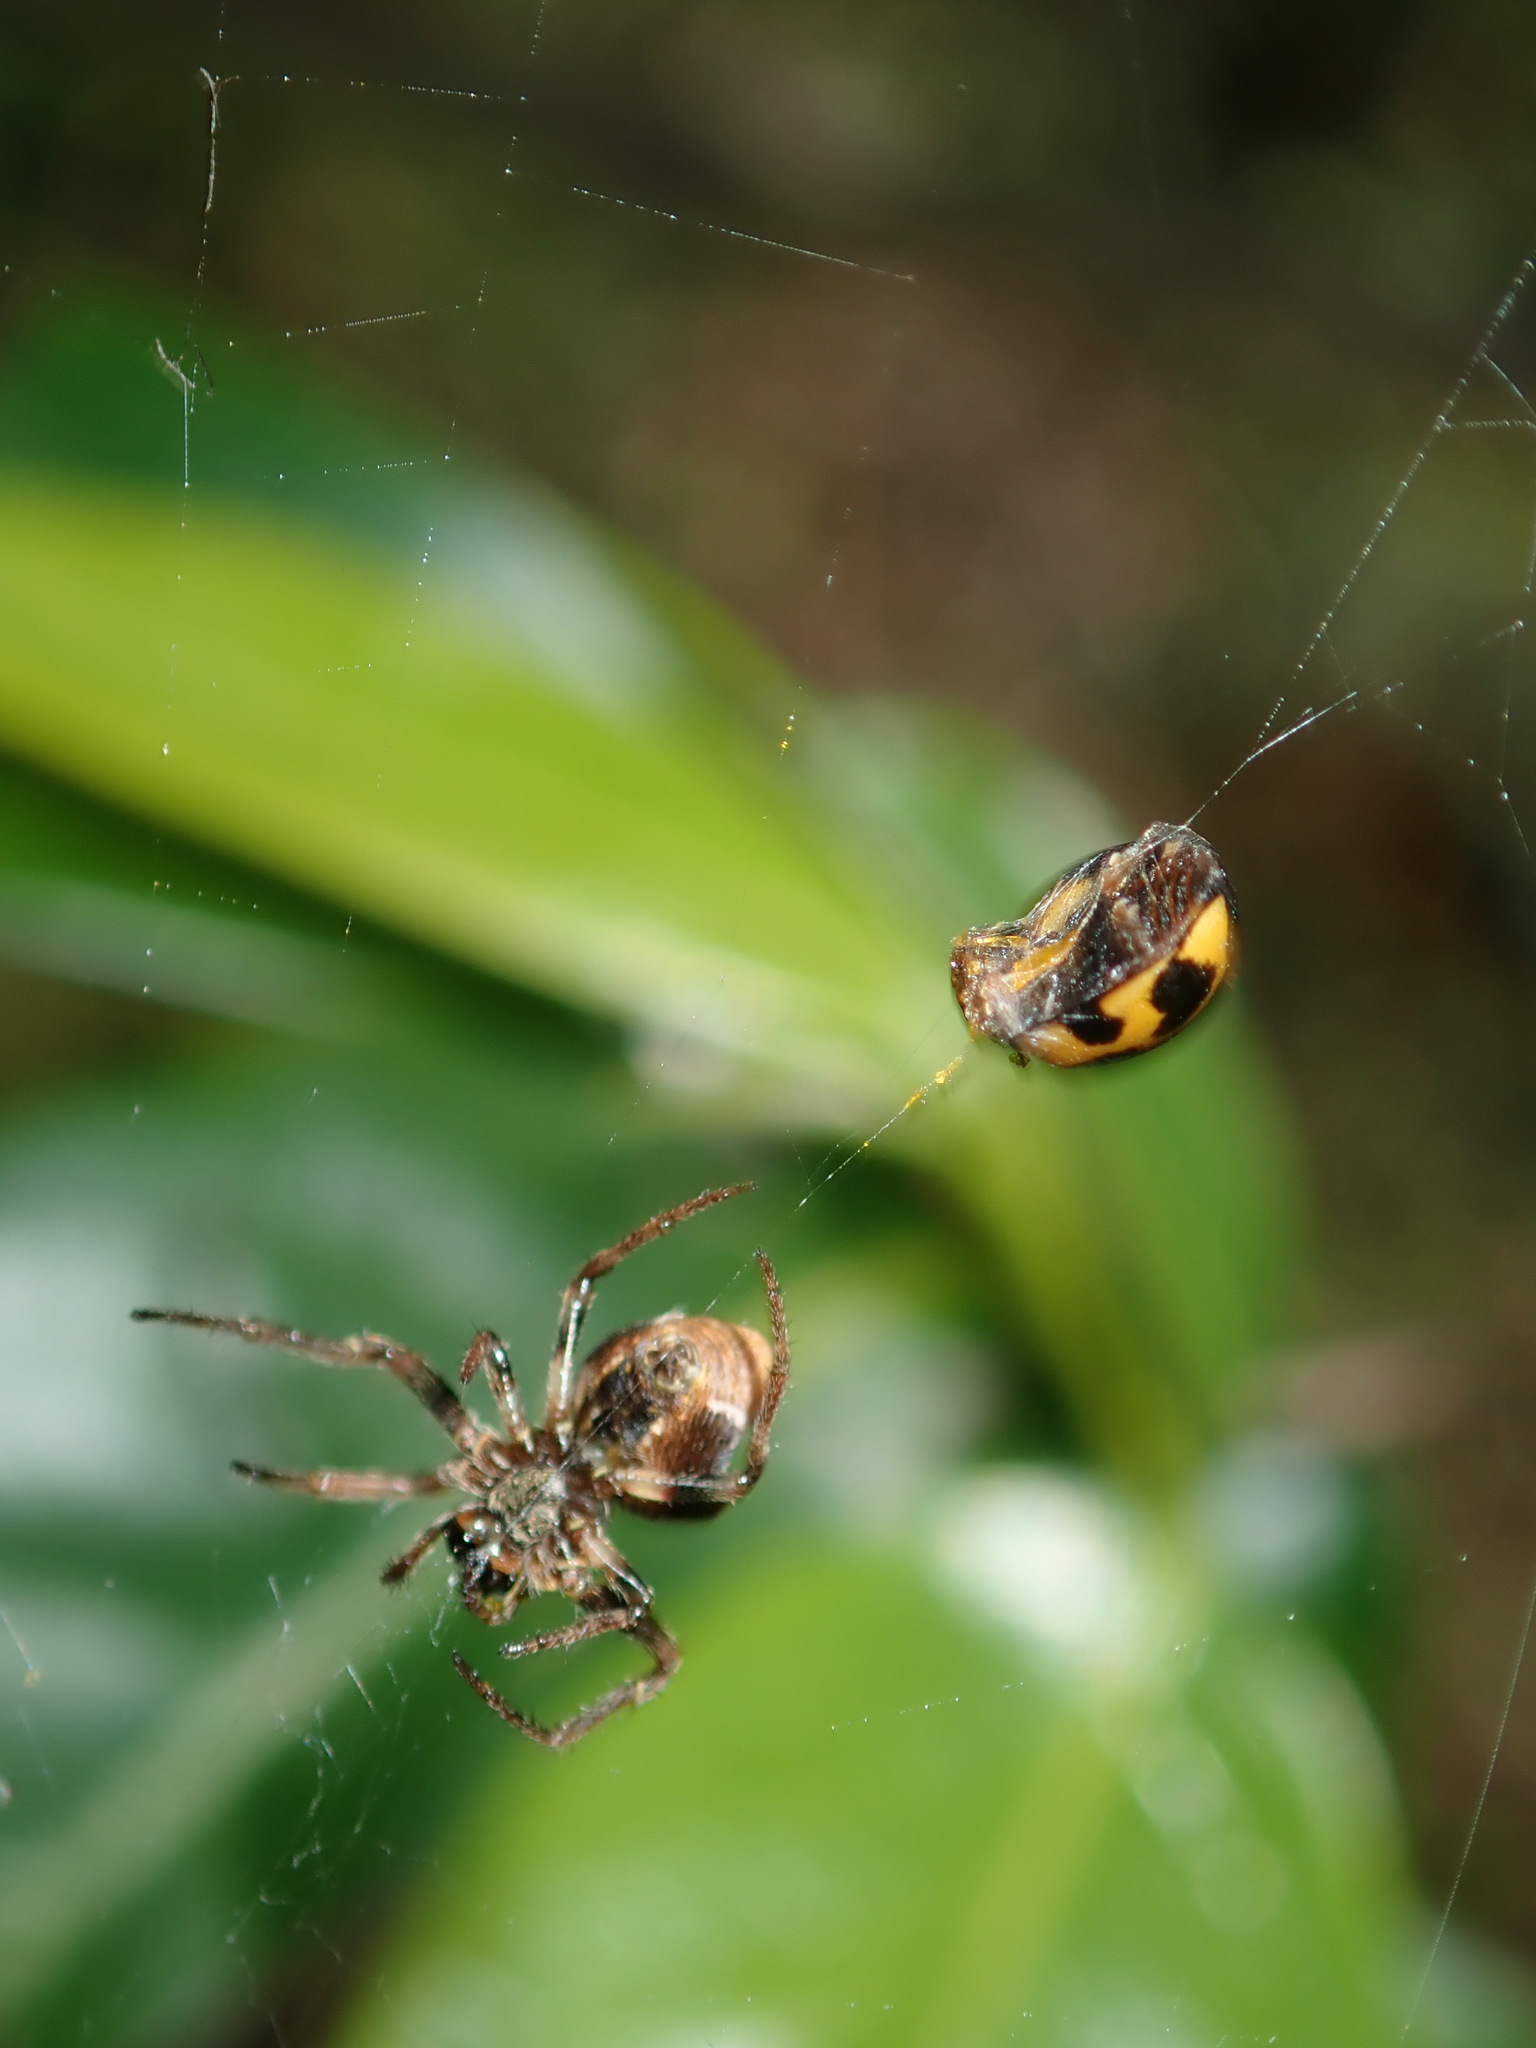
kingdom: Animalia
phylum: Arthropoda
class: Insecta
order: Coleoptera
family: Coccinellidae
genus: Coelophora
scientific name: Coelophora inaequalis
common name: Common australian lady beetle
